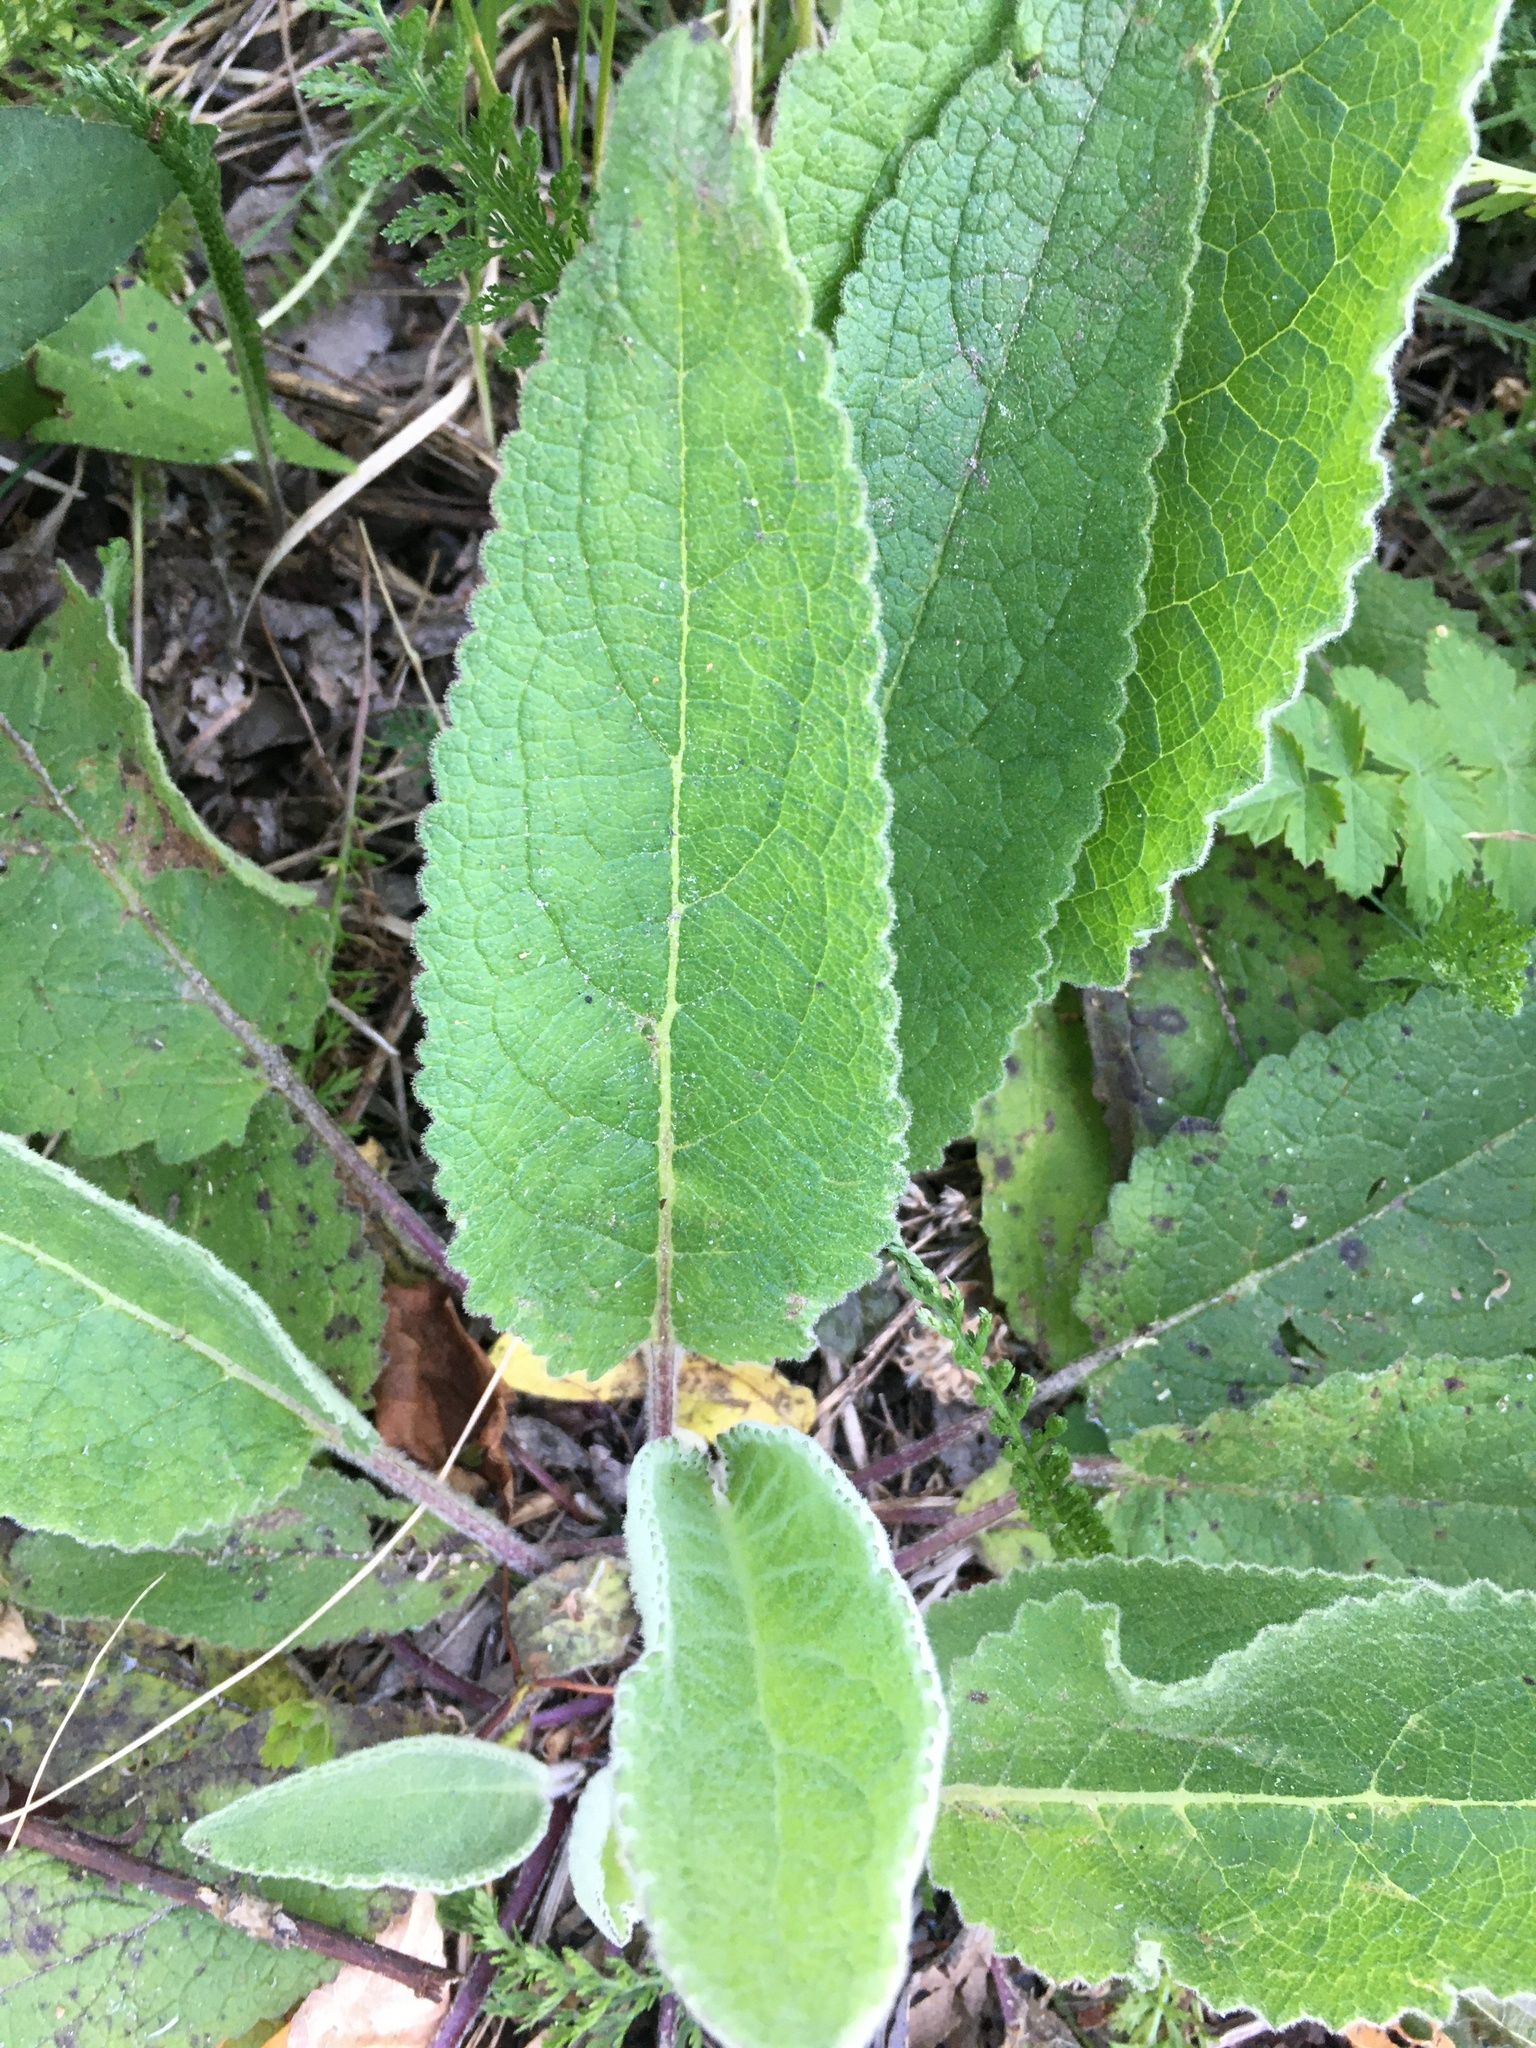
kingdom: Plantae
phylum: Tracheophyta
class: Magnoliopsida
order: Lamiales
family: Scrophulariaceae
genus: Verbascum
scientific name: Verbascum nigrum
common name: Dark mullein
